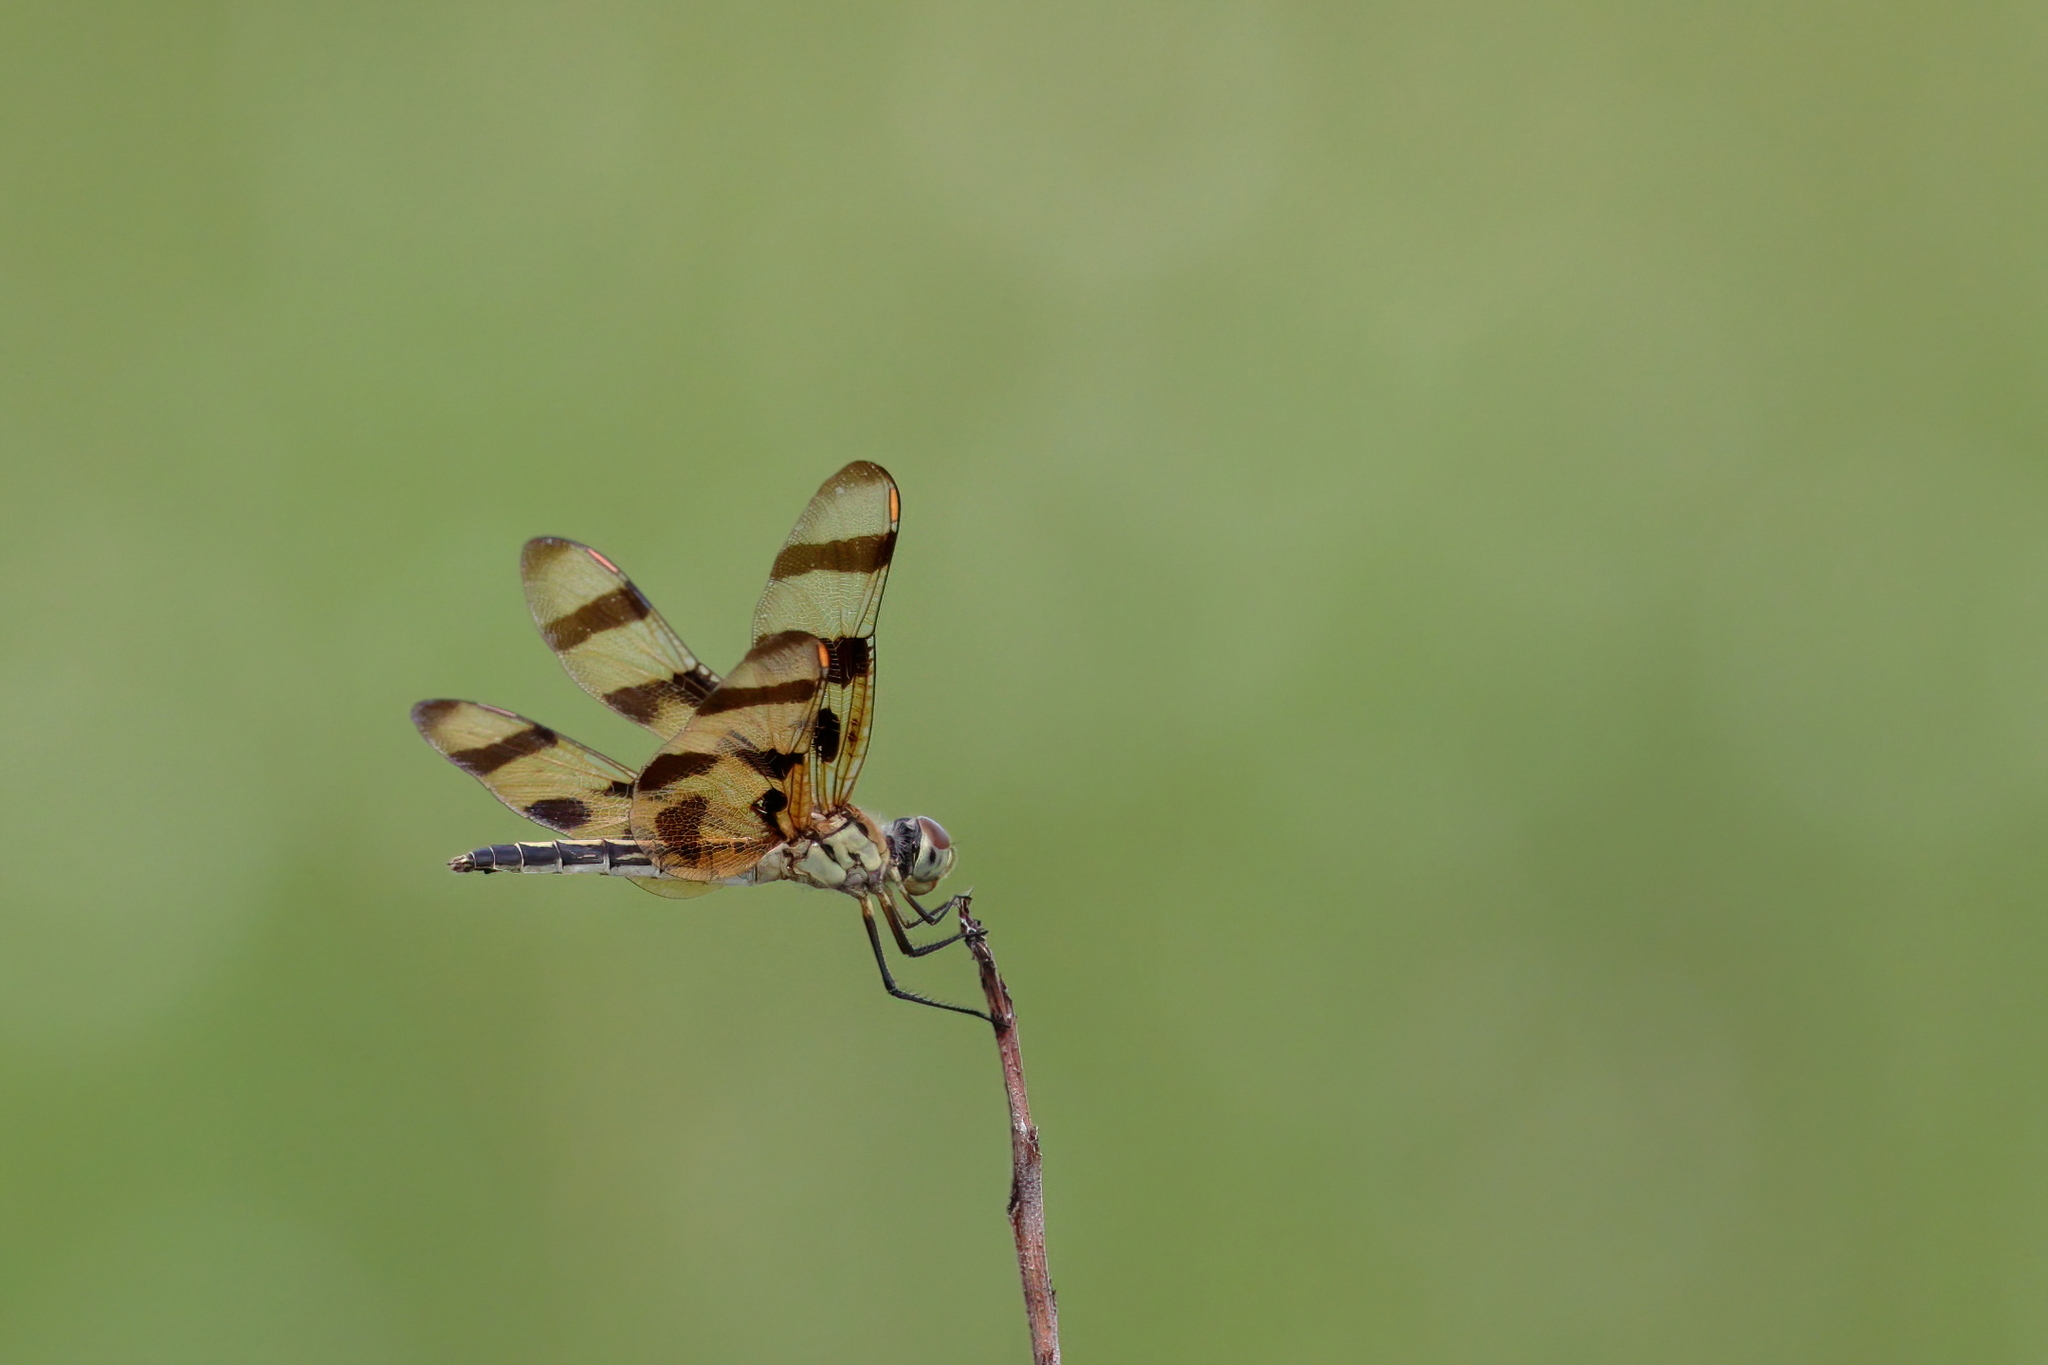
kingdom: Animalia
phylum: Arthropoda
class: Insecta
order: Odonata
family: Libellulidae
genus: Celithemis
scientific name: Celithemis eponina
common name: Halloween pennant
